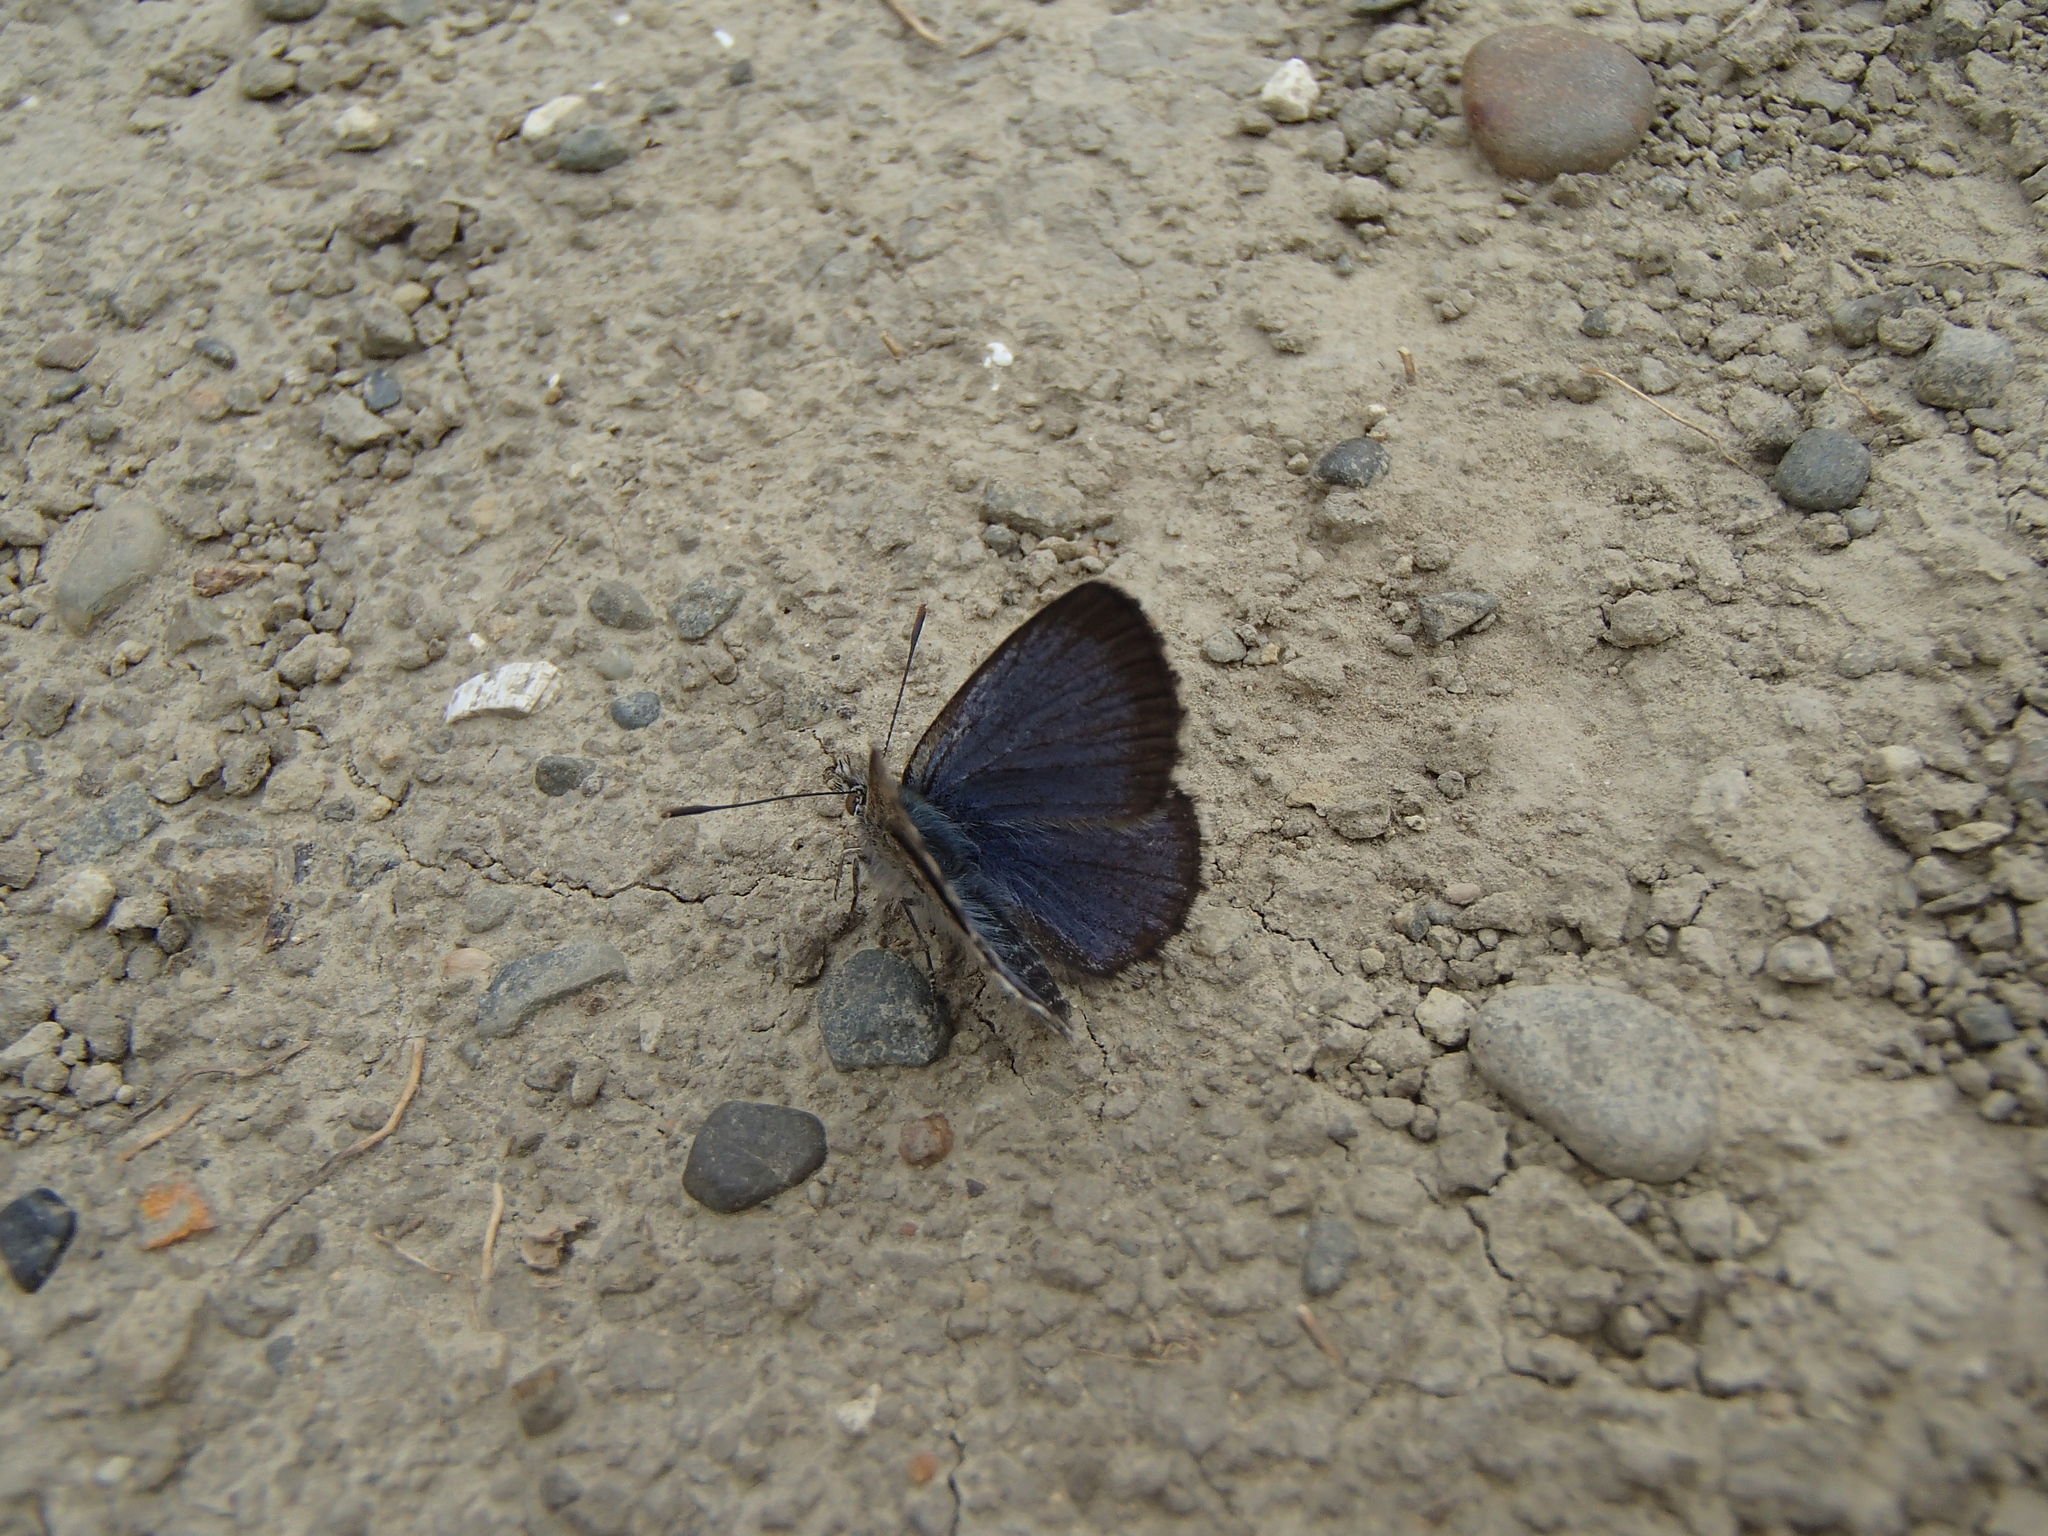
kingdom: Animalia
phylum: Arthropoda
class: Insecta
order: Lepidoptera
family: Lycaenidae
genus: Zizina
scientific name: Zizina oxleyi
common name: Southern blue
